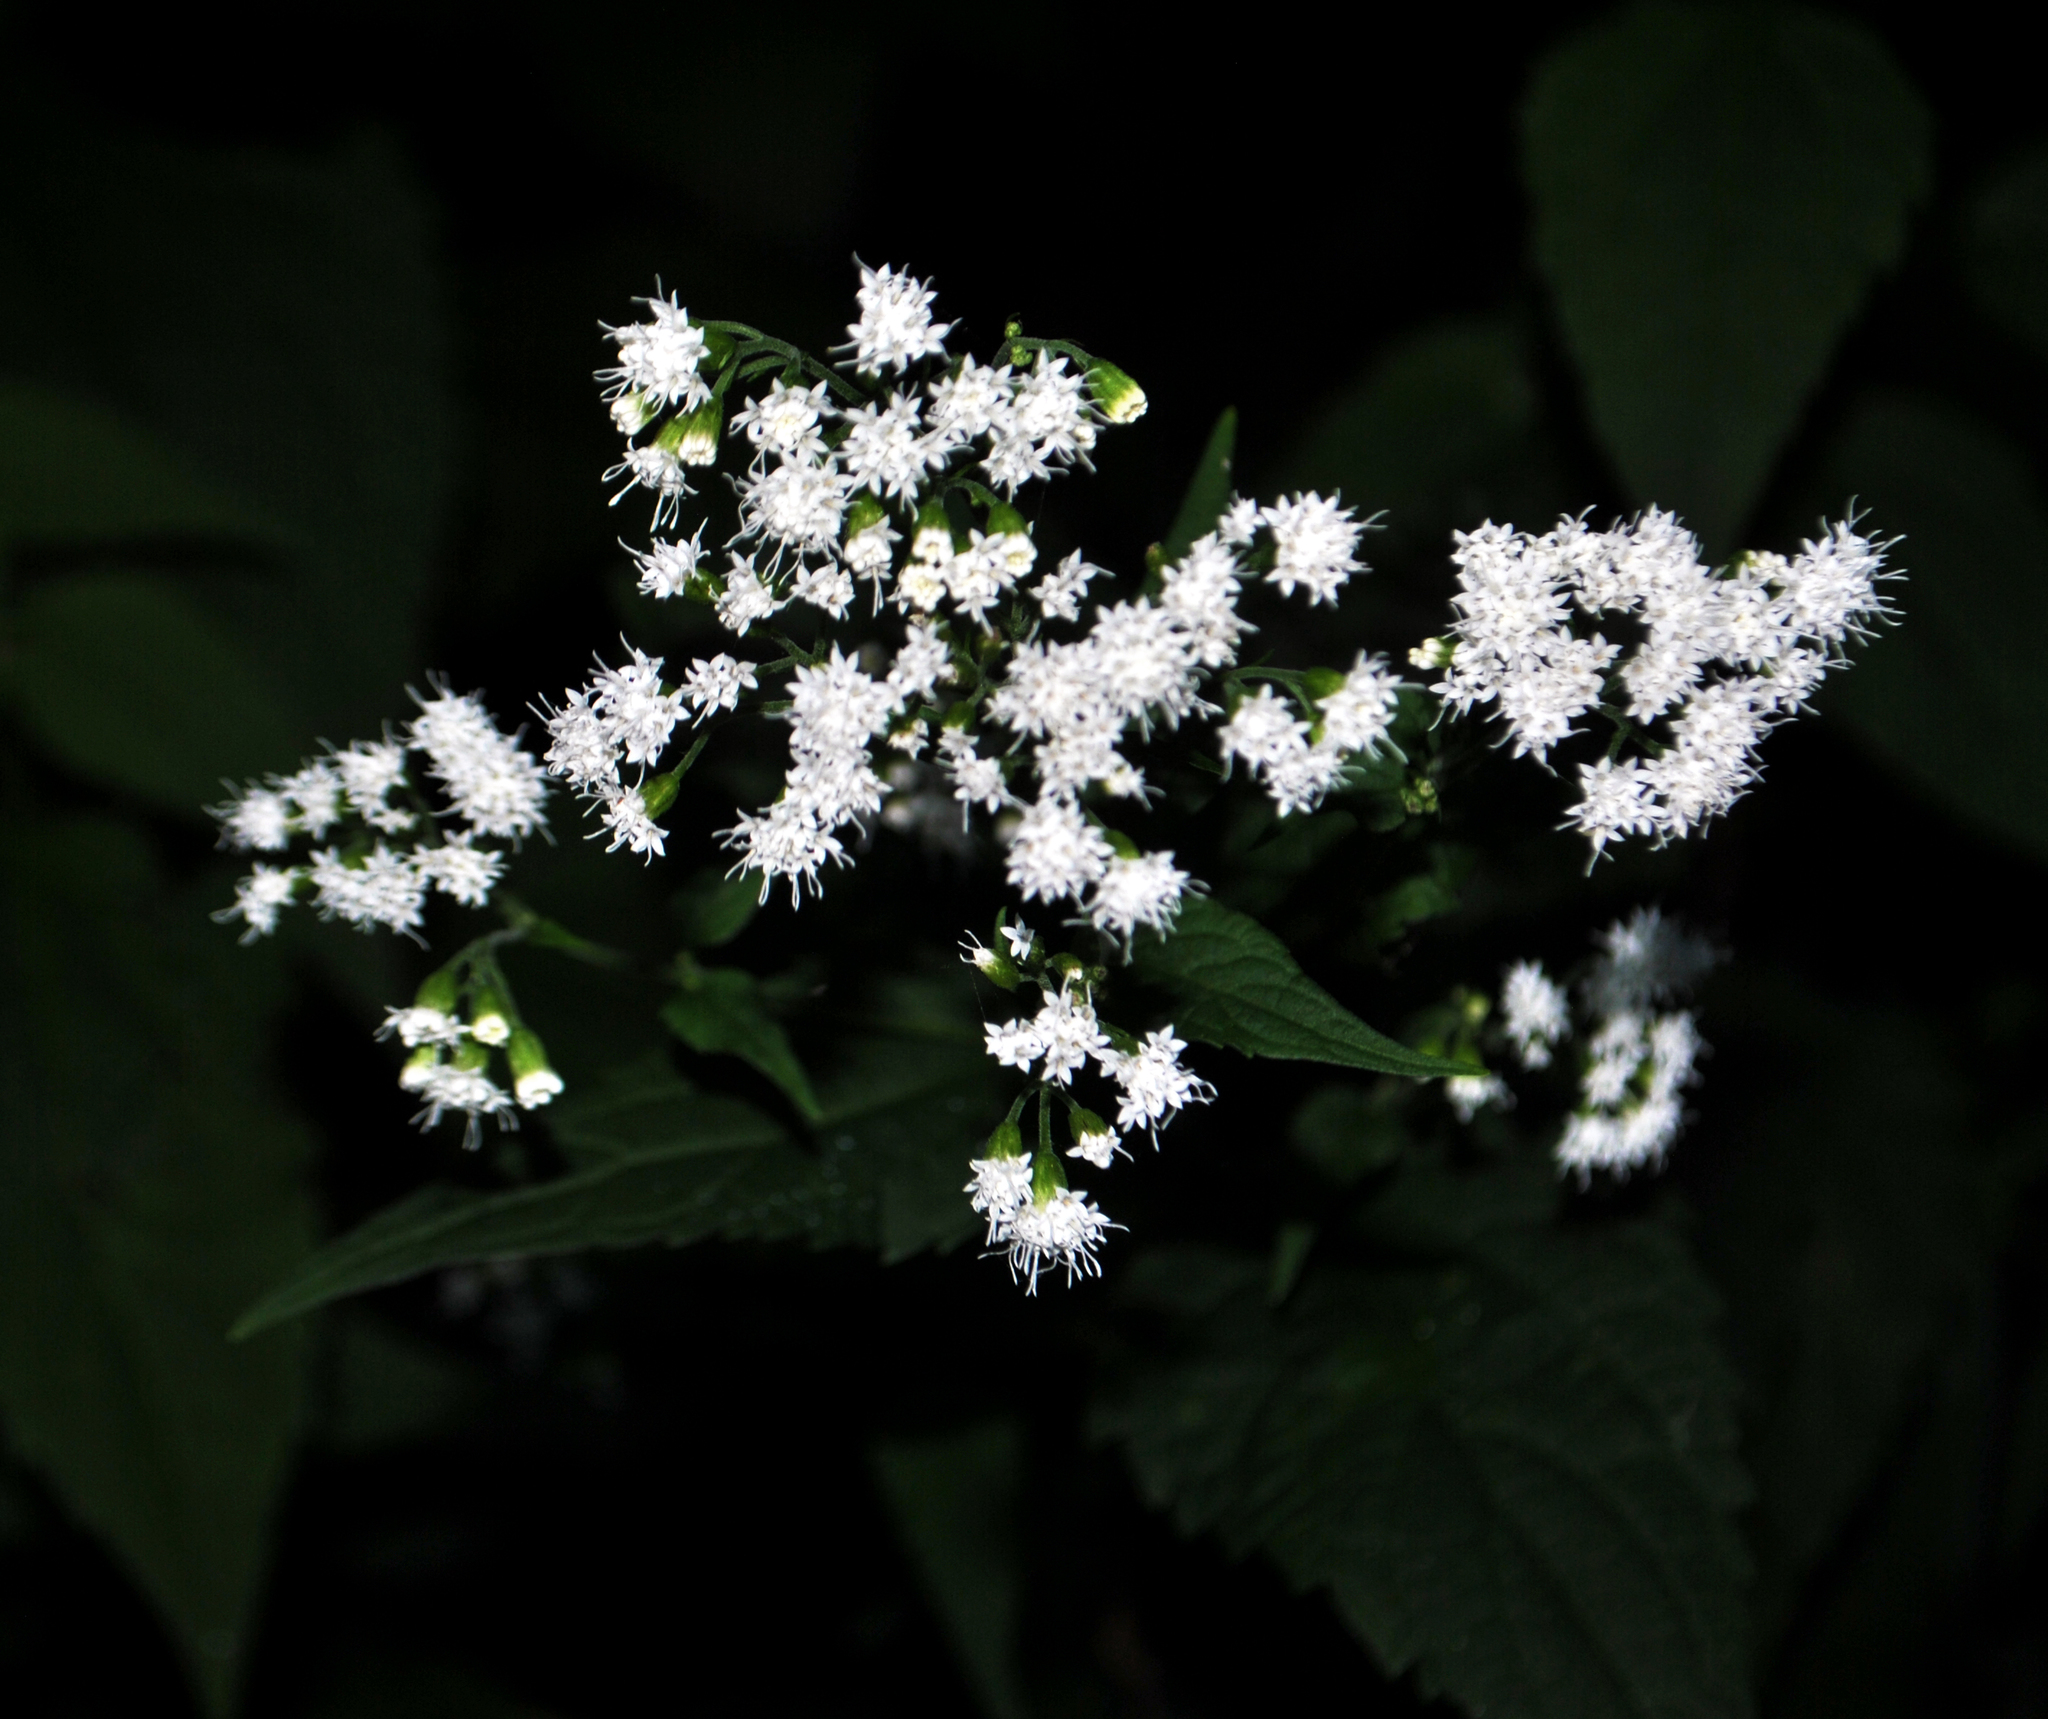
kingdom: Plantae
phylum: Tracheophyta
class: Magnoliopsida
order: Asterales
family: Asteraceae
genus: Ageratina
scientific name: Ageratina altissima
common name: White snakeroot
